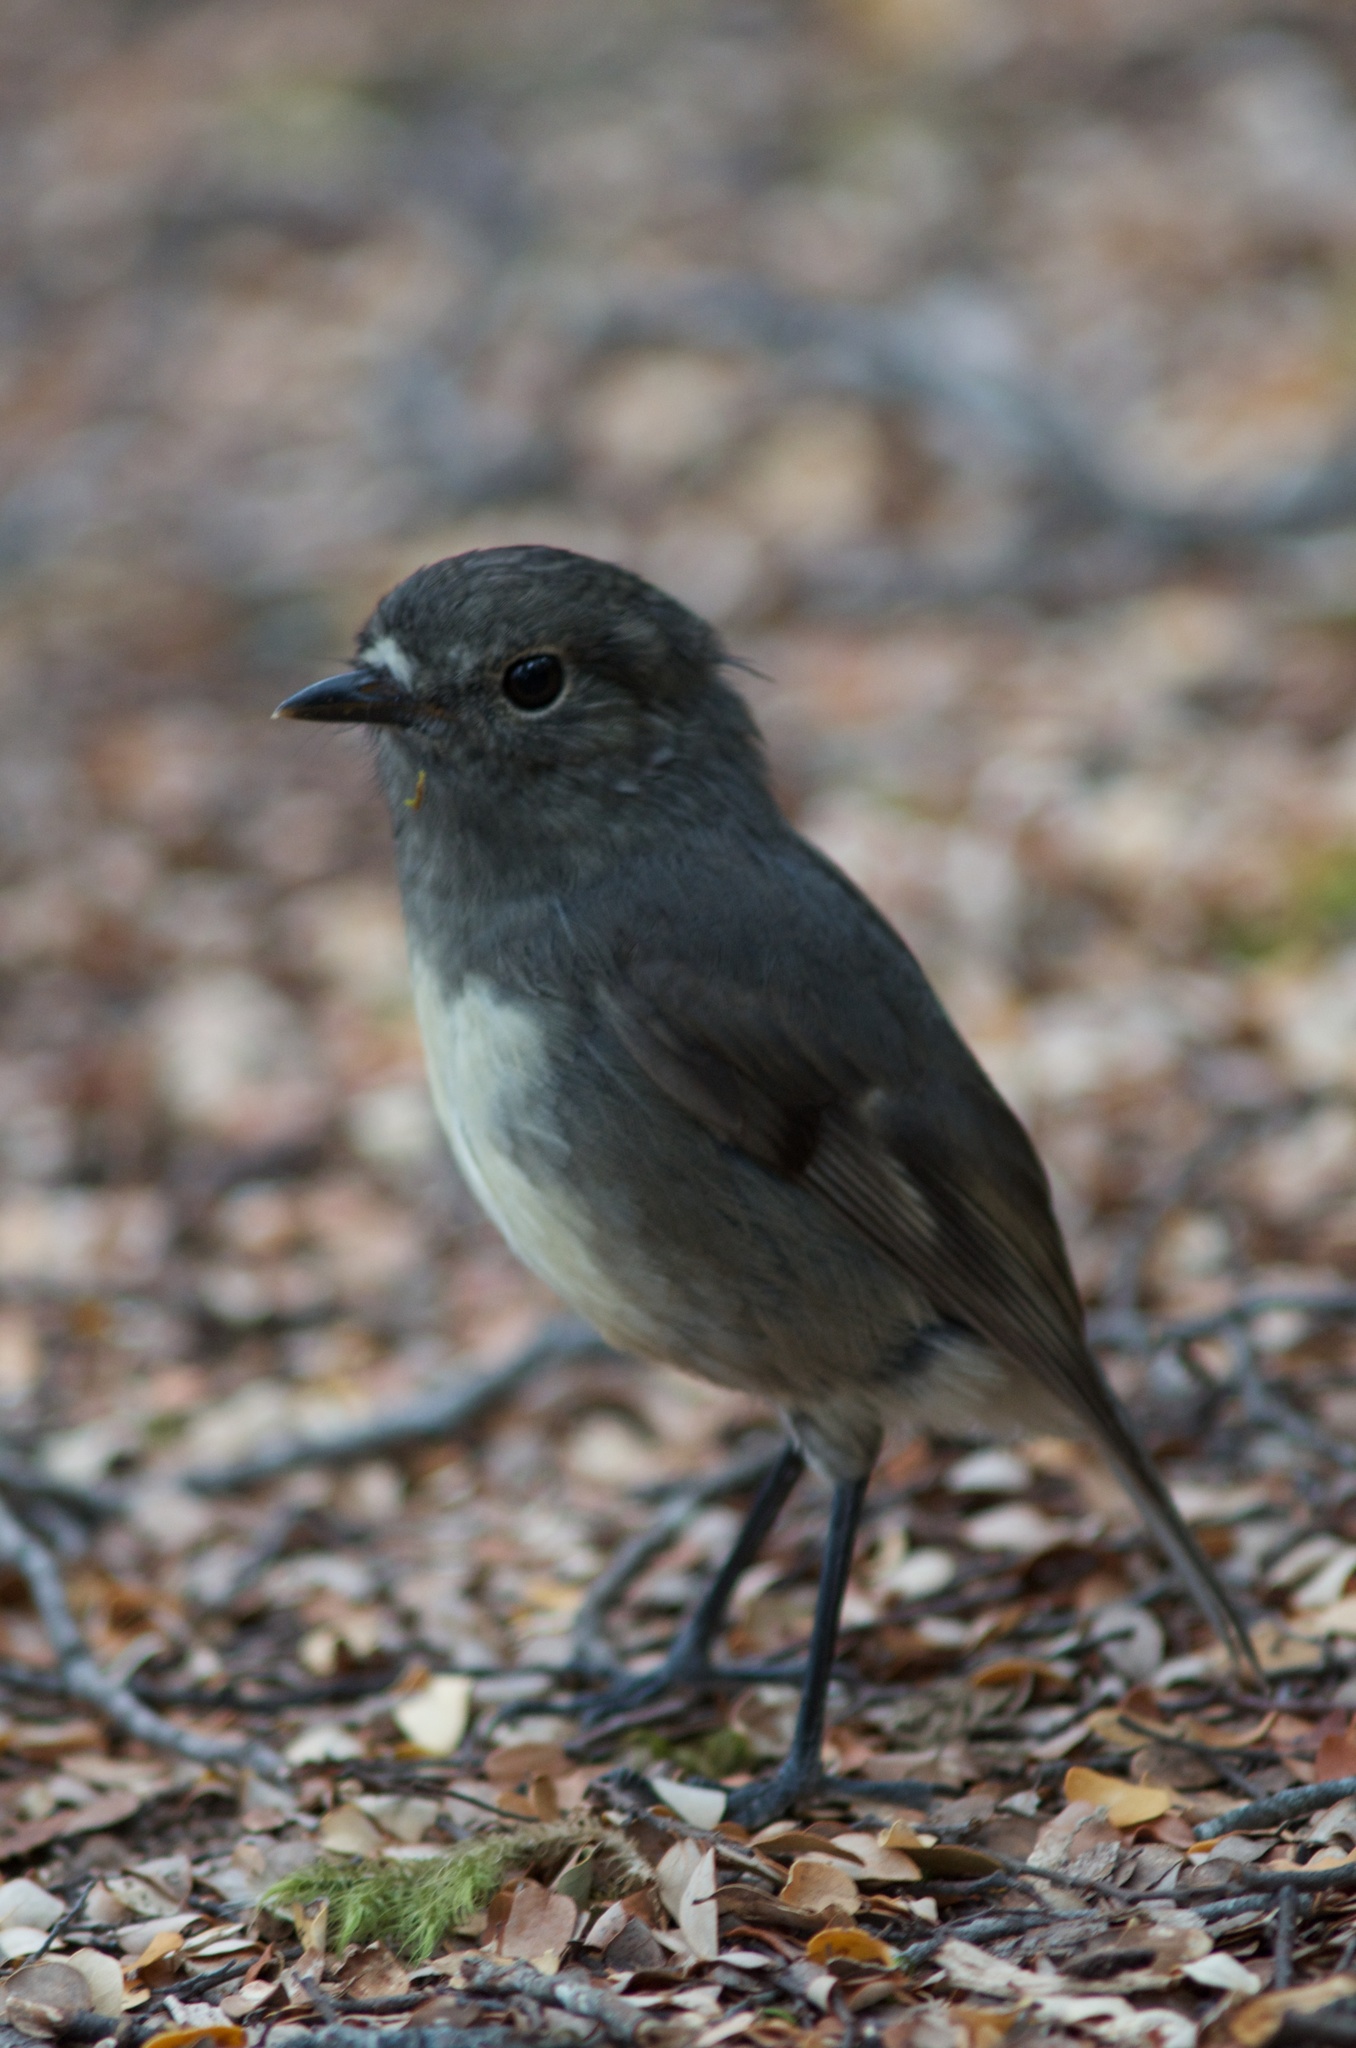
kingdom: Animalia
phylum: Chordata
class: Aves
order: Passeriformes
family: Petroicidae
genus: Petroica
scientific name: Petroica australis
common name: New zealand robin
